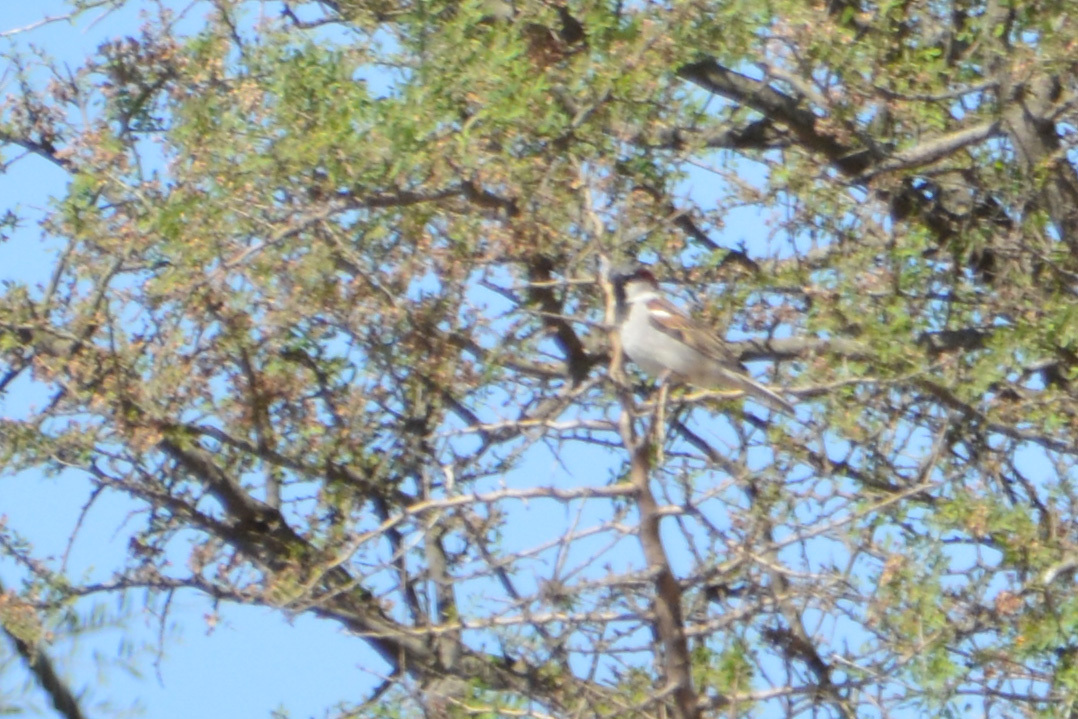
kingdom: Animalia
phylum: Chordata
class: Aves
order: Passeriformes
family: Passeridae
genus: Passer
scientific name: Passer domesticus
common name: House sparrow
